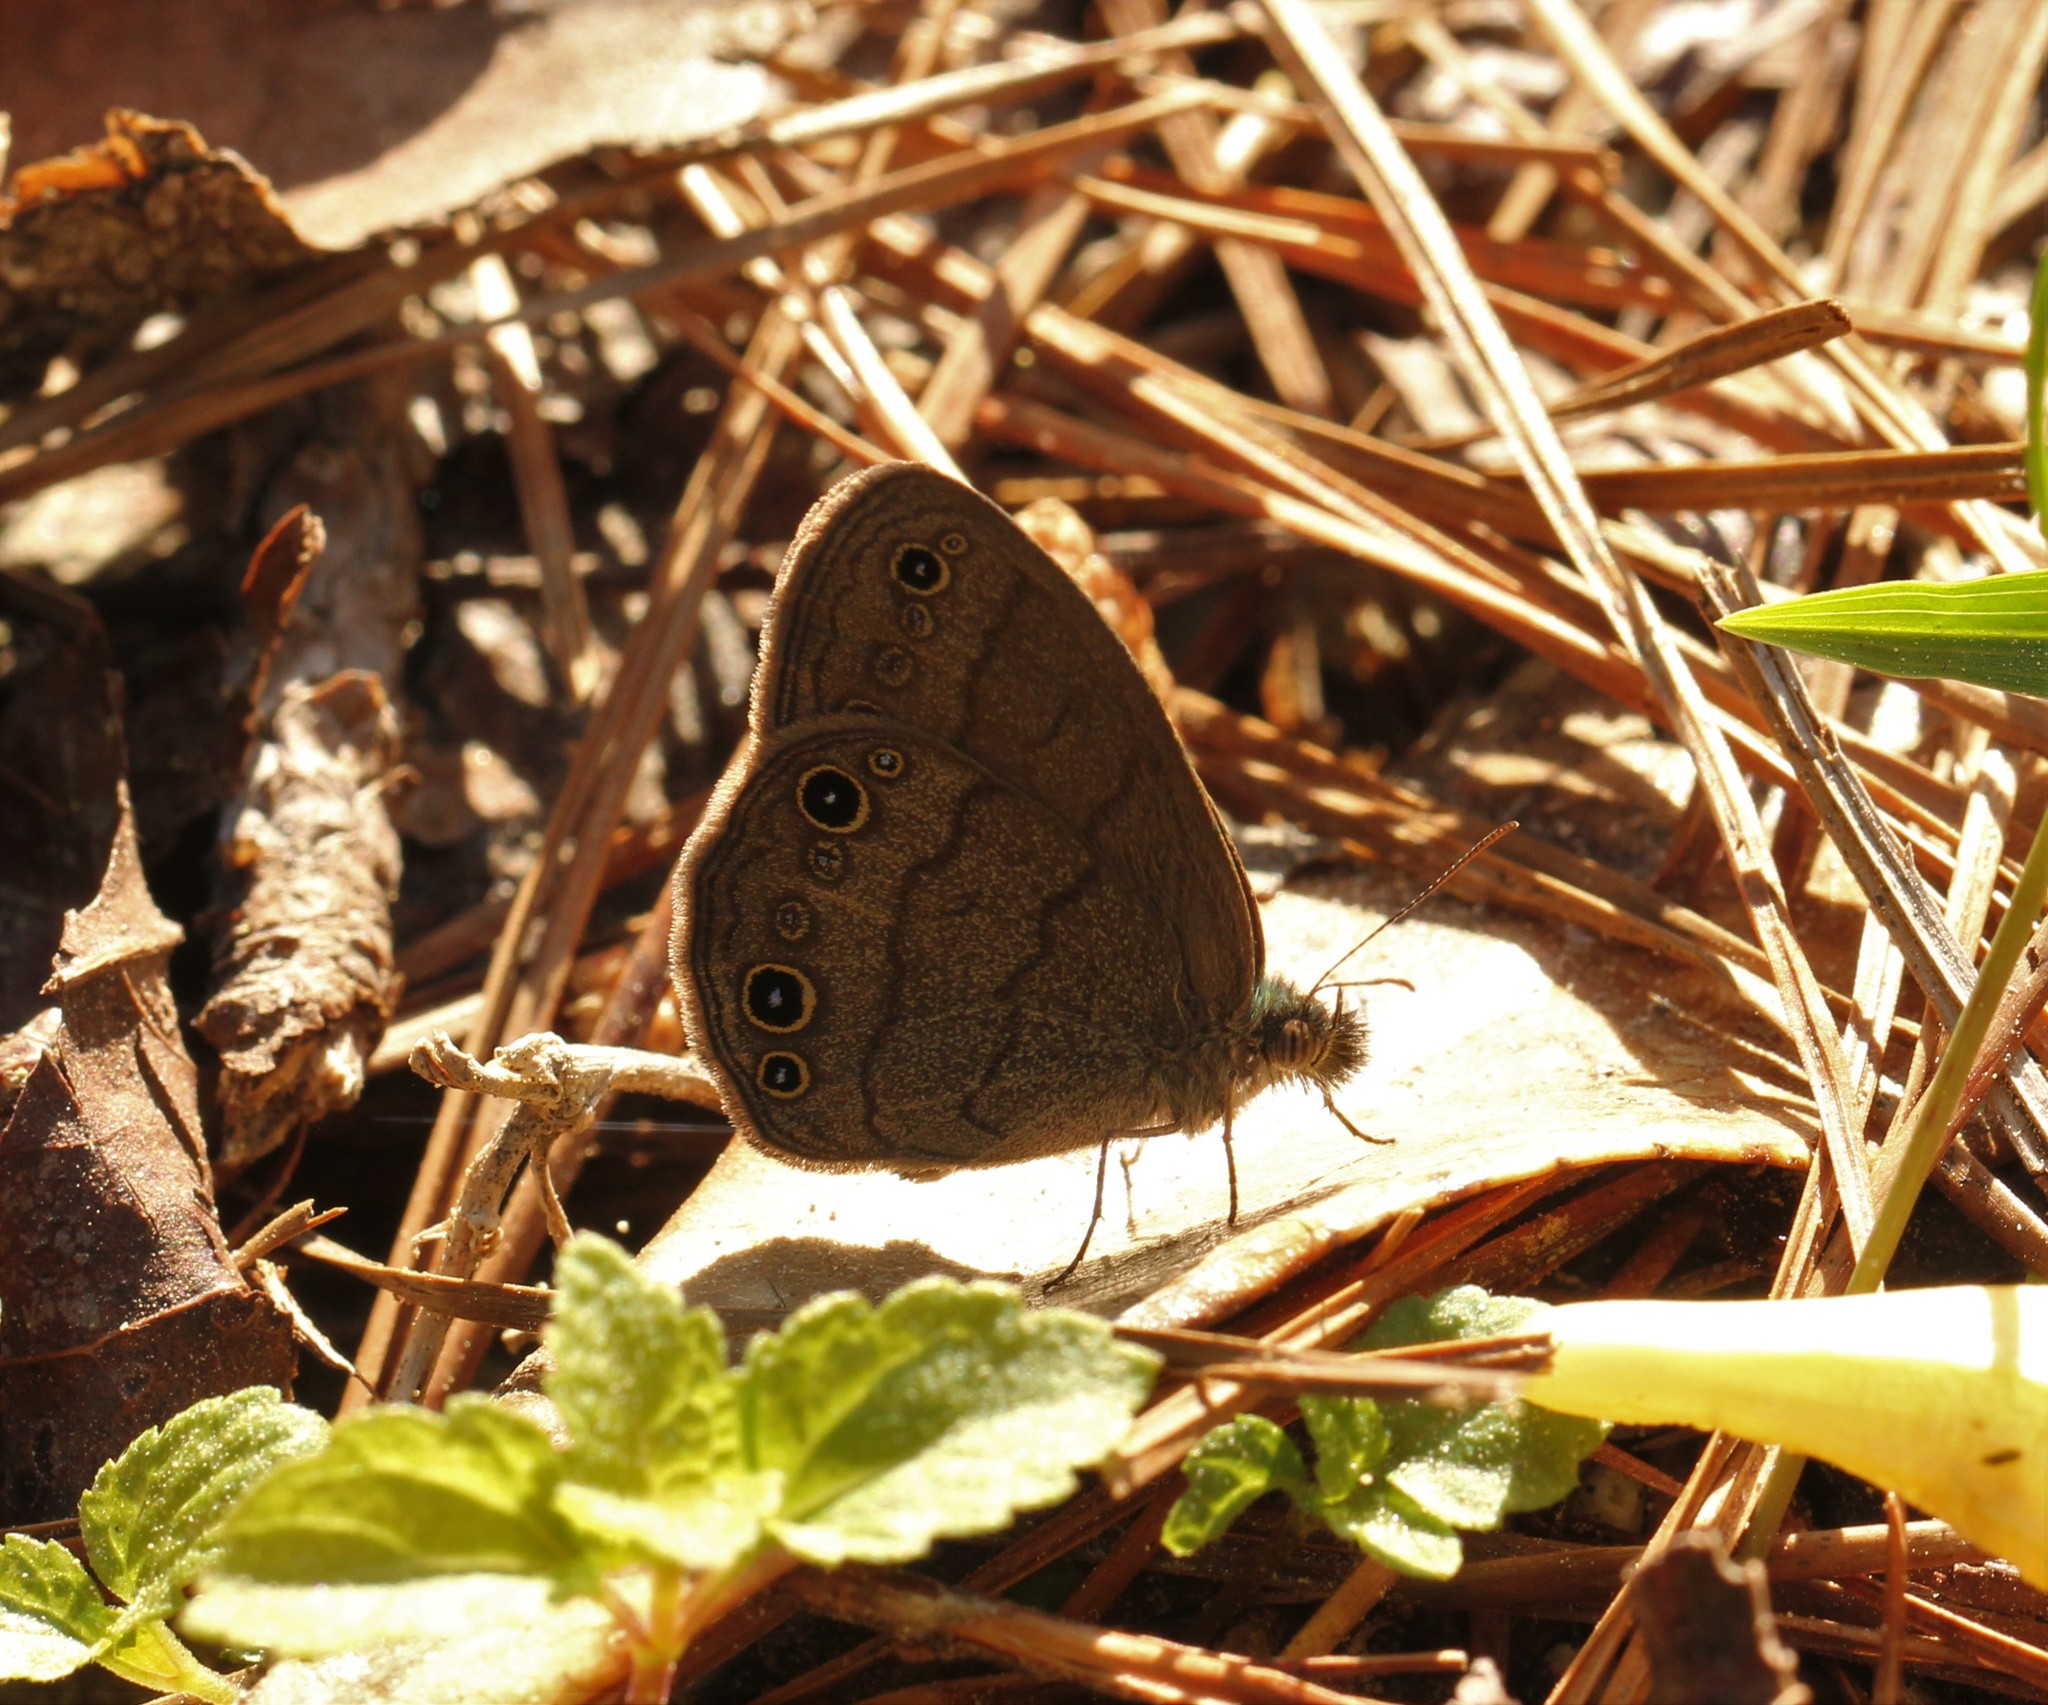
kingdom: Animalia
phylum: Arthropoda
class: Insecta
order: Lepidoptera
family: Nymphalidae
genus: Hermeuptychia
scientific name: Hermeuptychia hermes
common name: Hermes satyr
